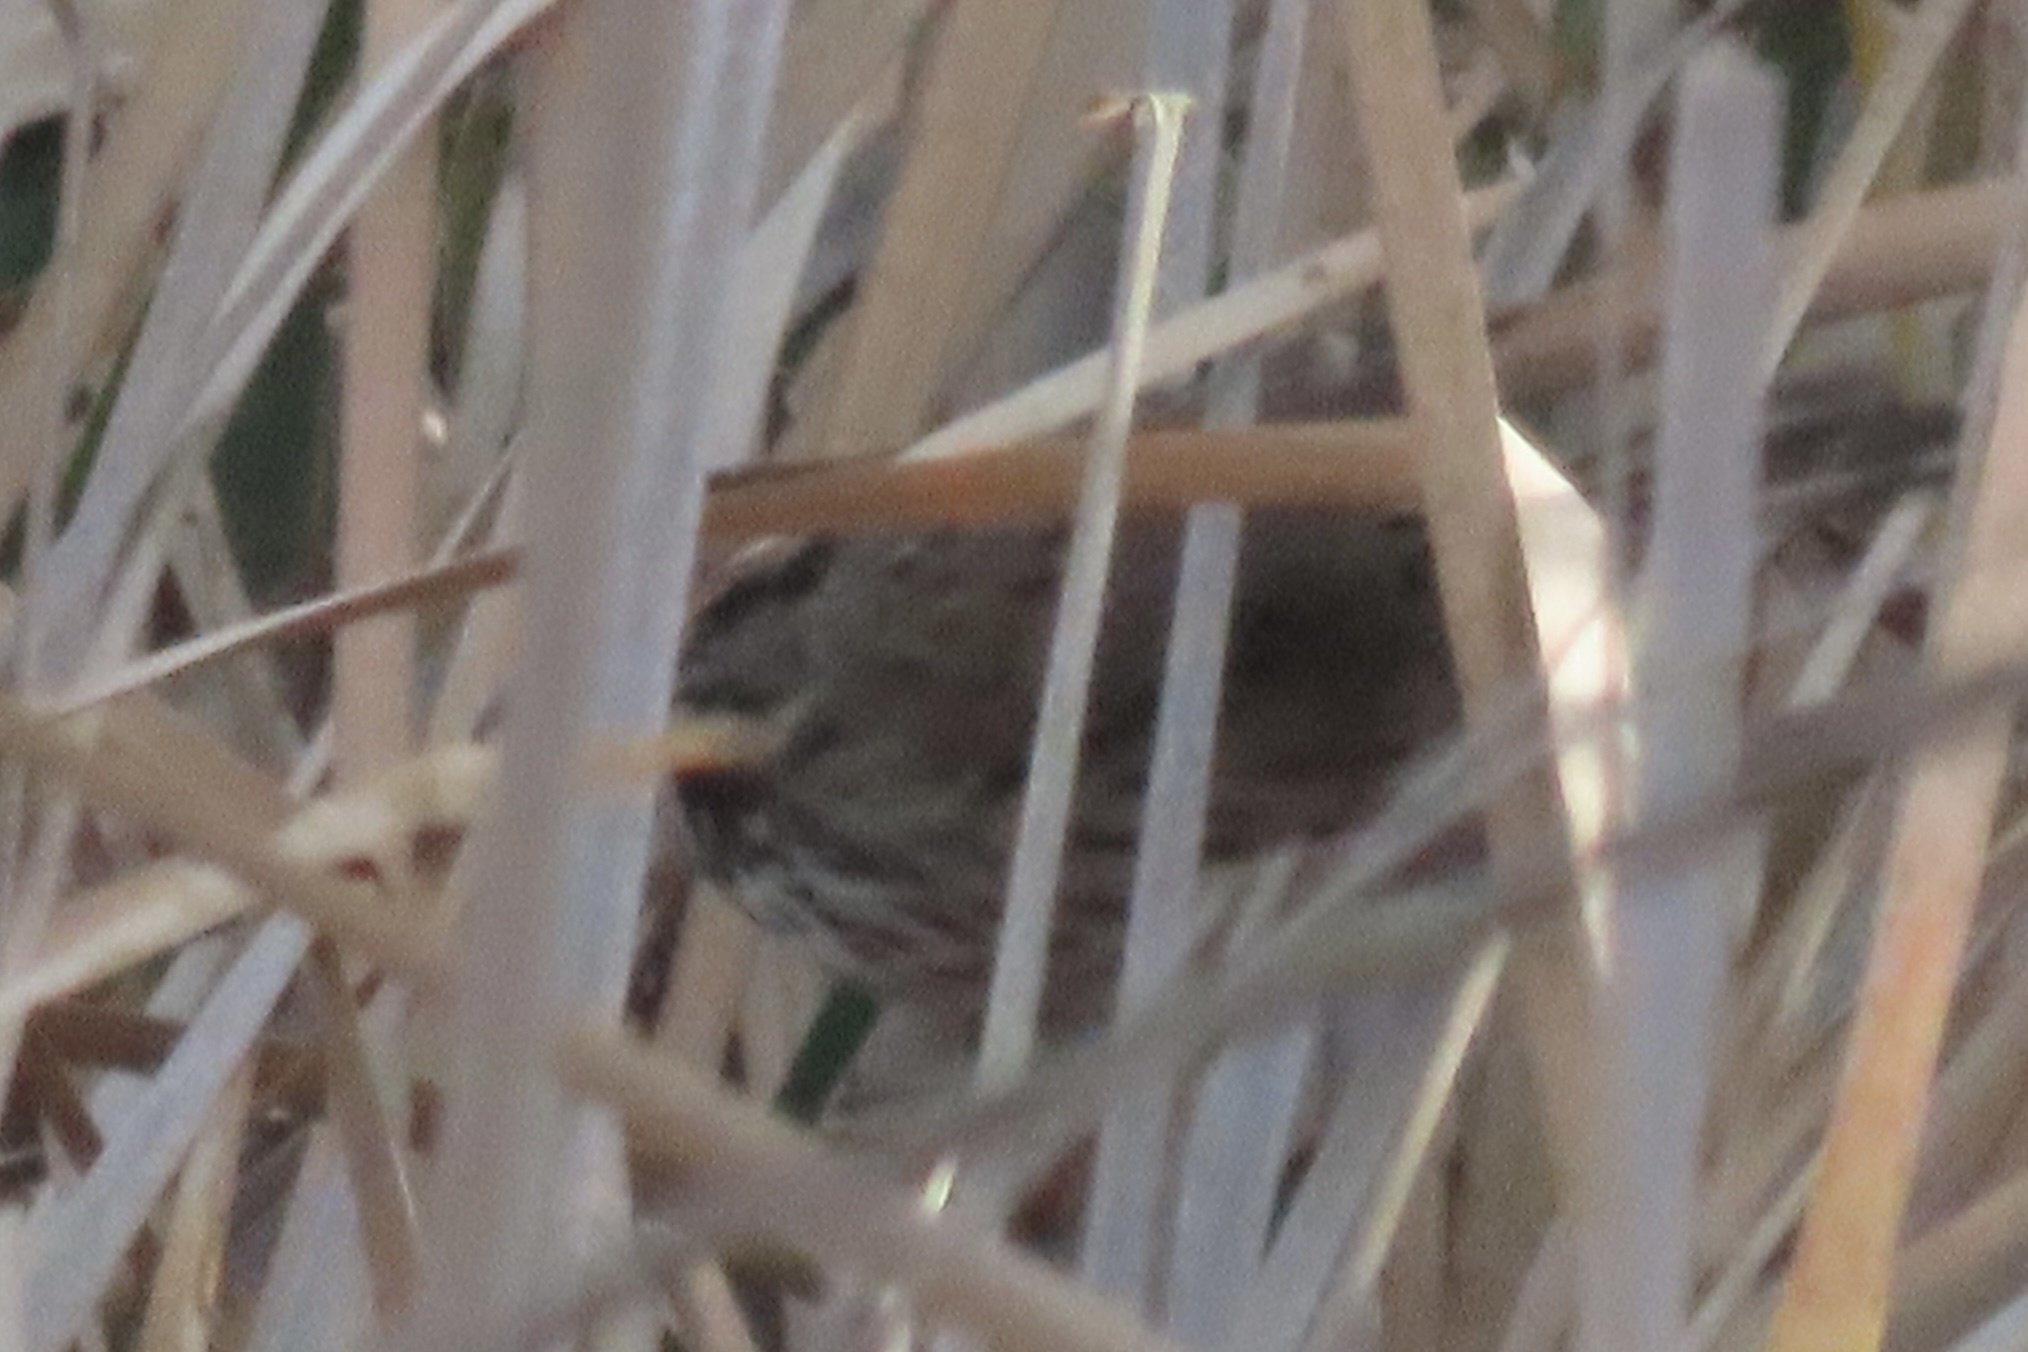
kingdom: Animalia
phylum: Chordata
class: Aves
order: Passeriformes
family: Passerellidae
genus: Melospiza
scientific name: Melospiza melodia
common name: Song sparrow
